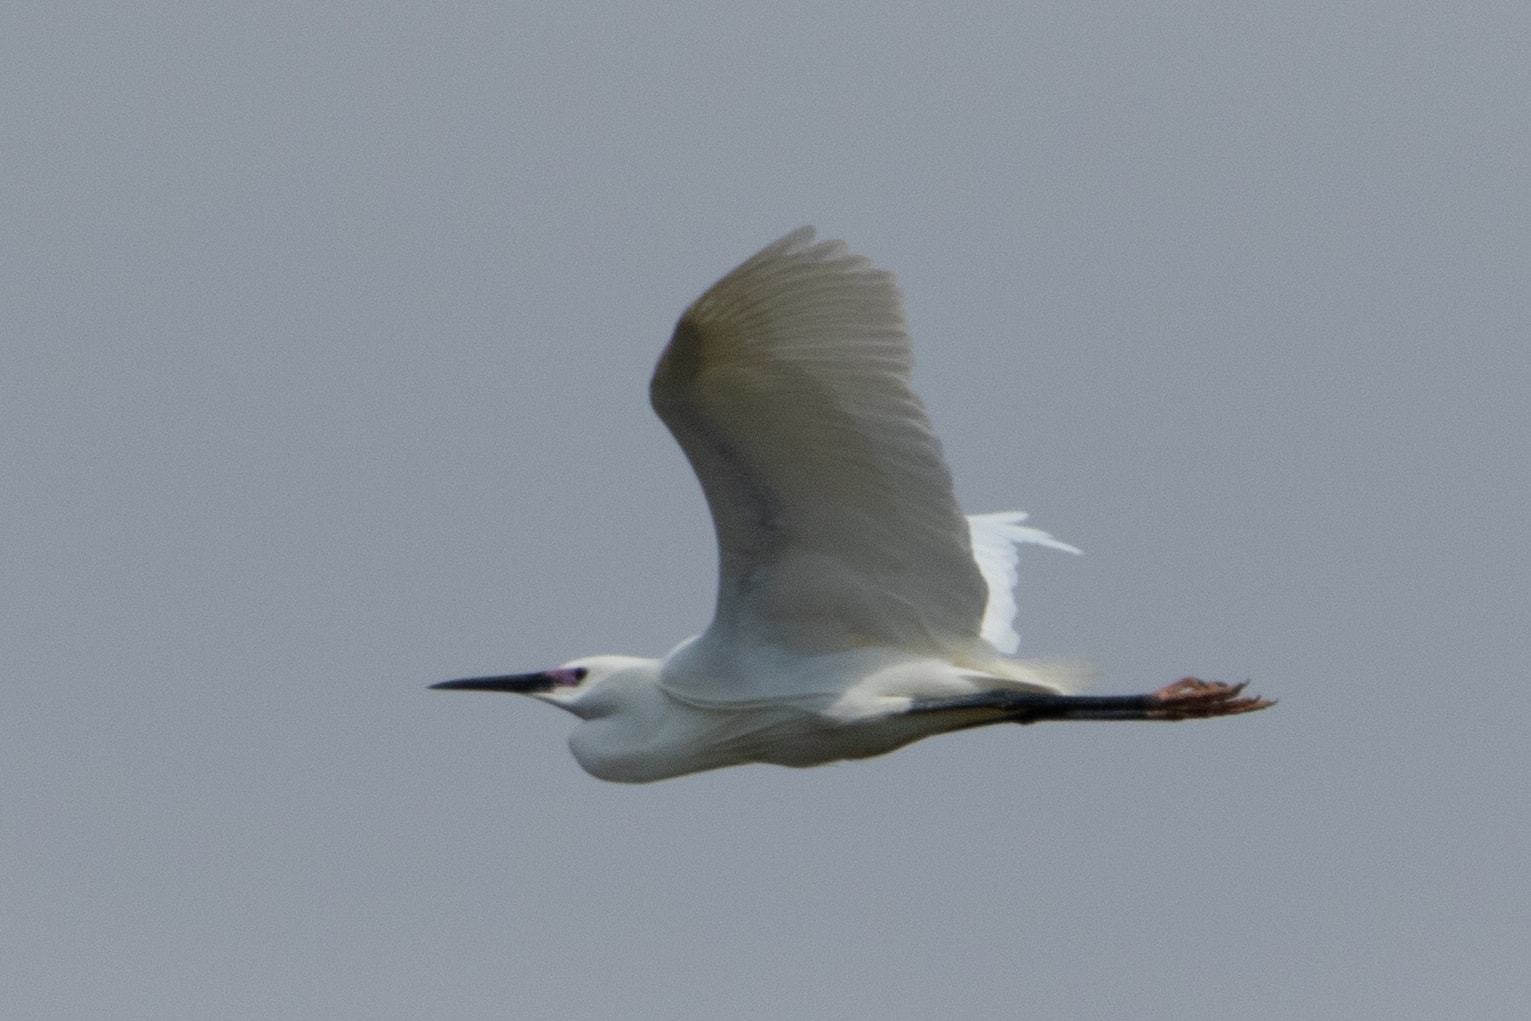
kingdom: Animalia
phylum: Chordata
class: Aves
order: Pelecaniformes
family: Ardeidae
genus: Egretta
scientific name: Egretta garzetta
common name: Little egret
